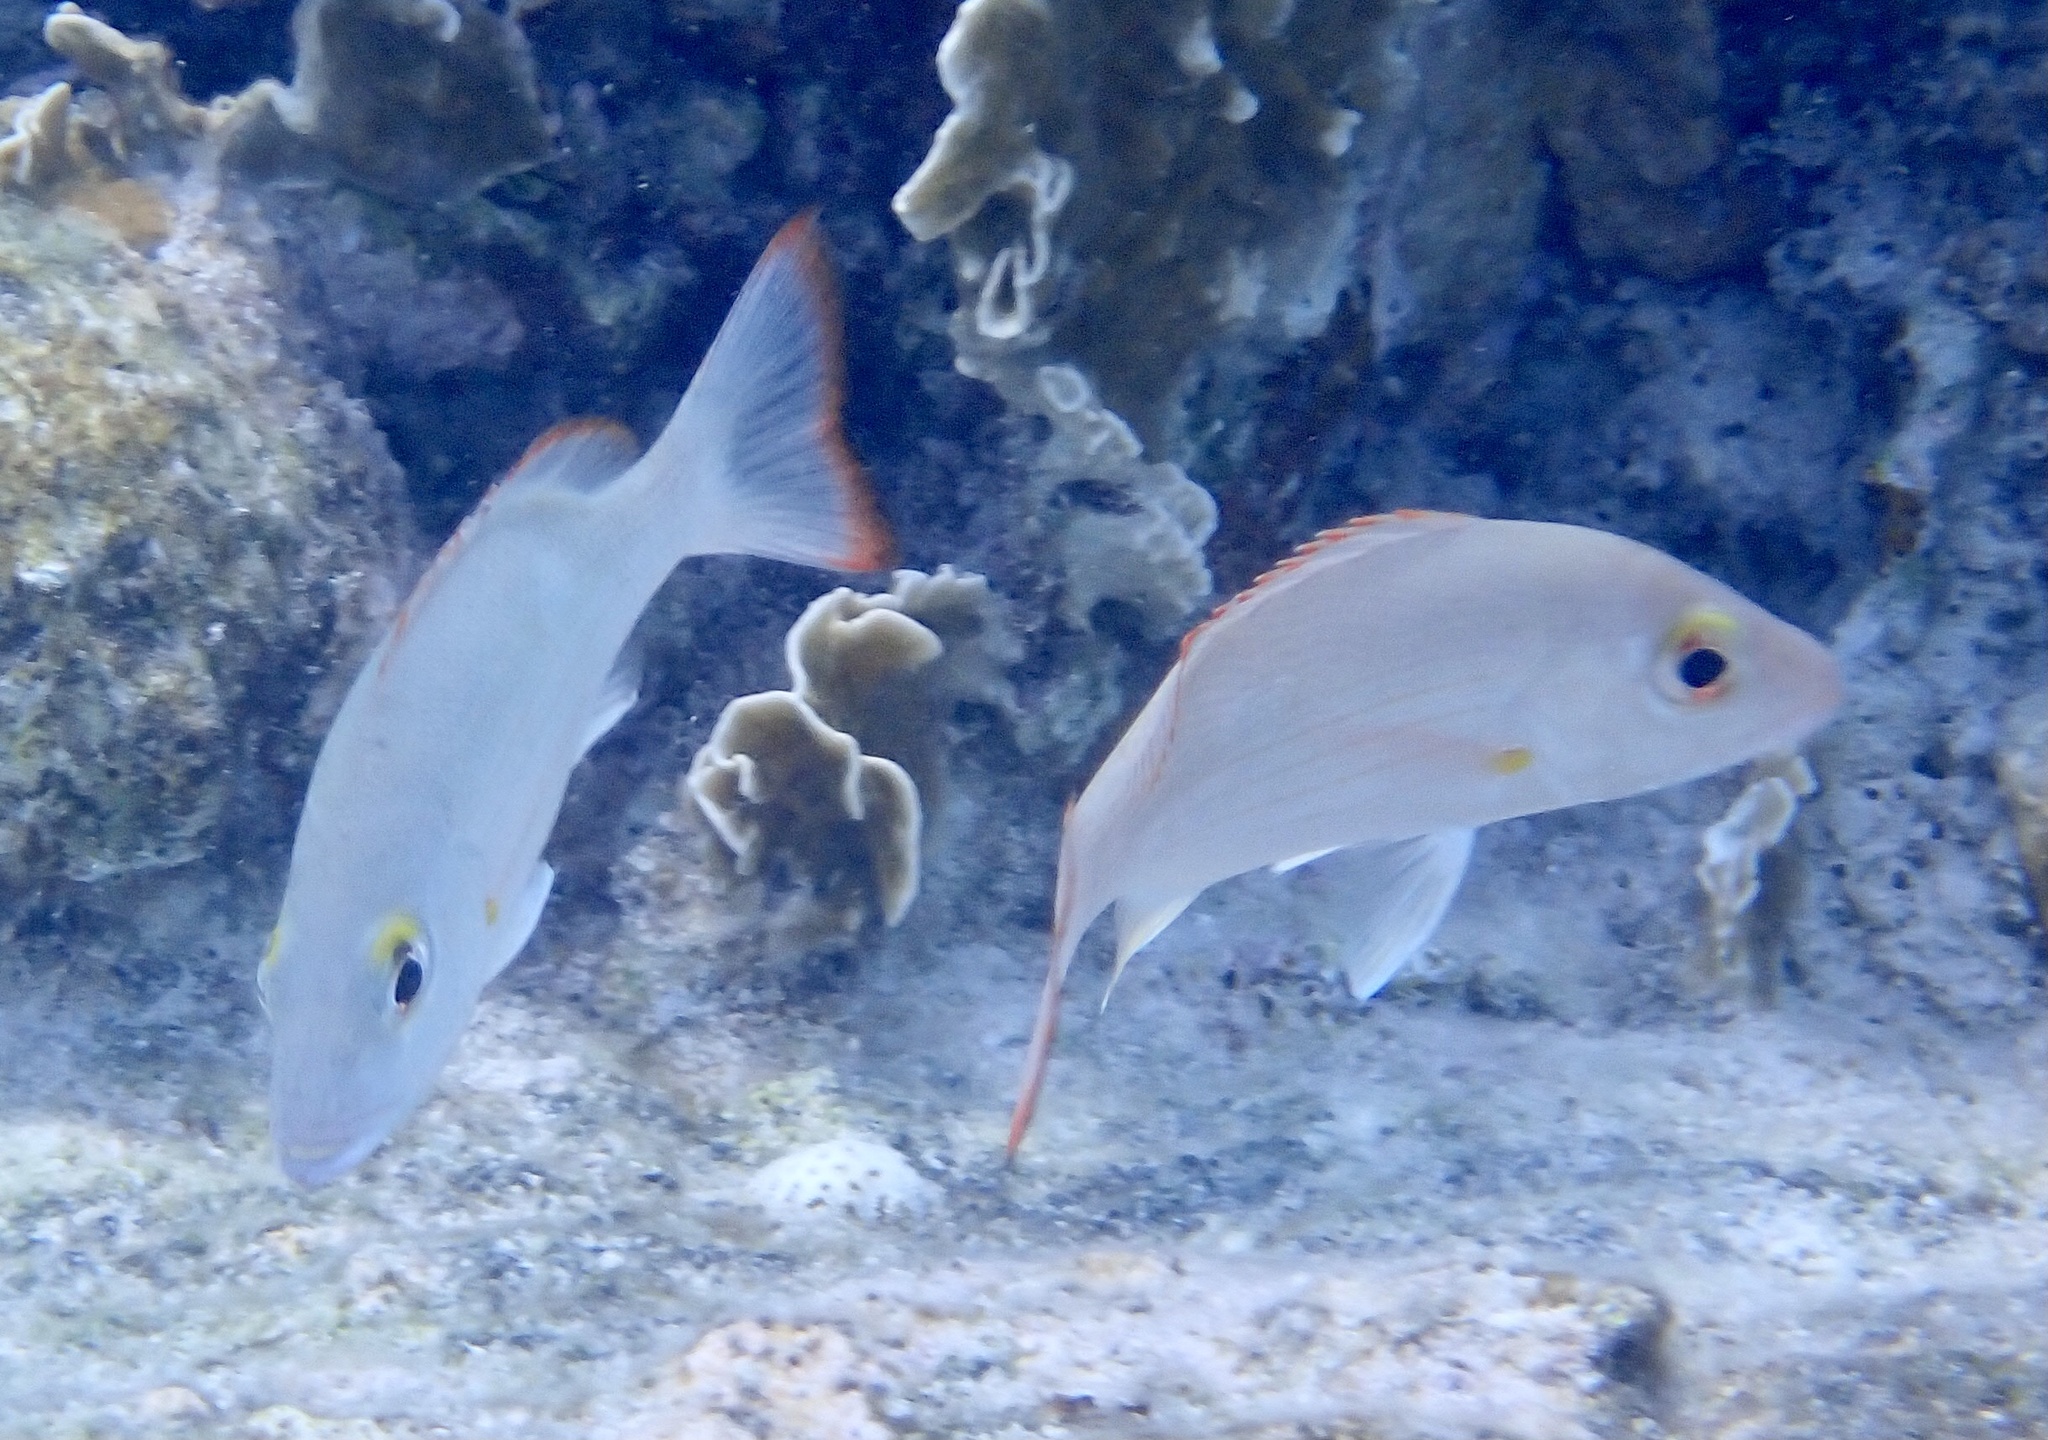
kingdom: Animalia
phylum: Chordata
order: Perciformes
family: Lutjanidae
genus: Lutjanus
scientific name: Lutjanus mahogoni
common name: Spot snapper
